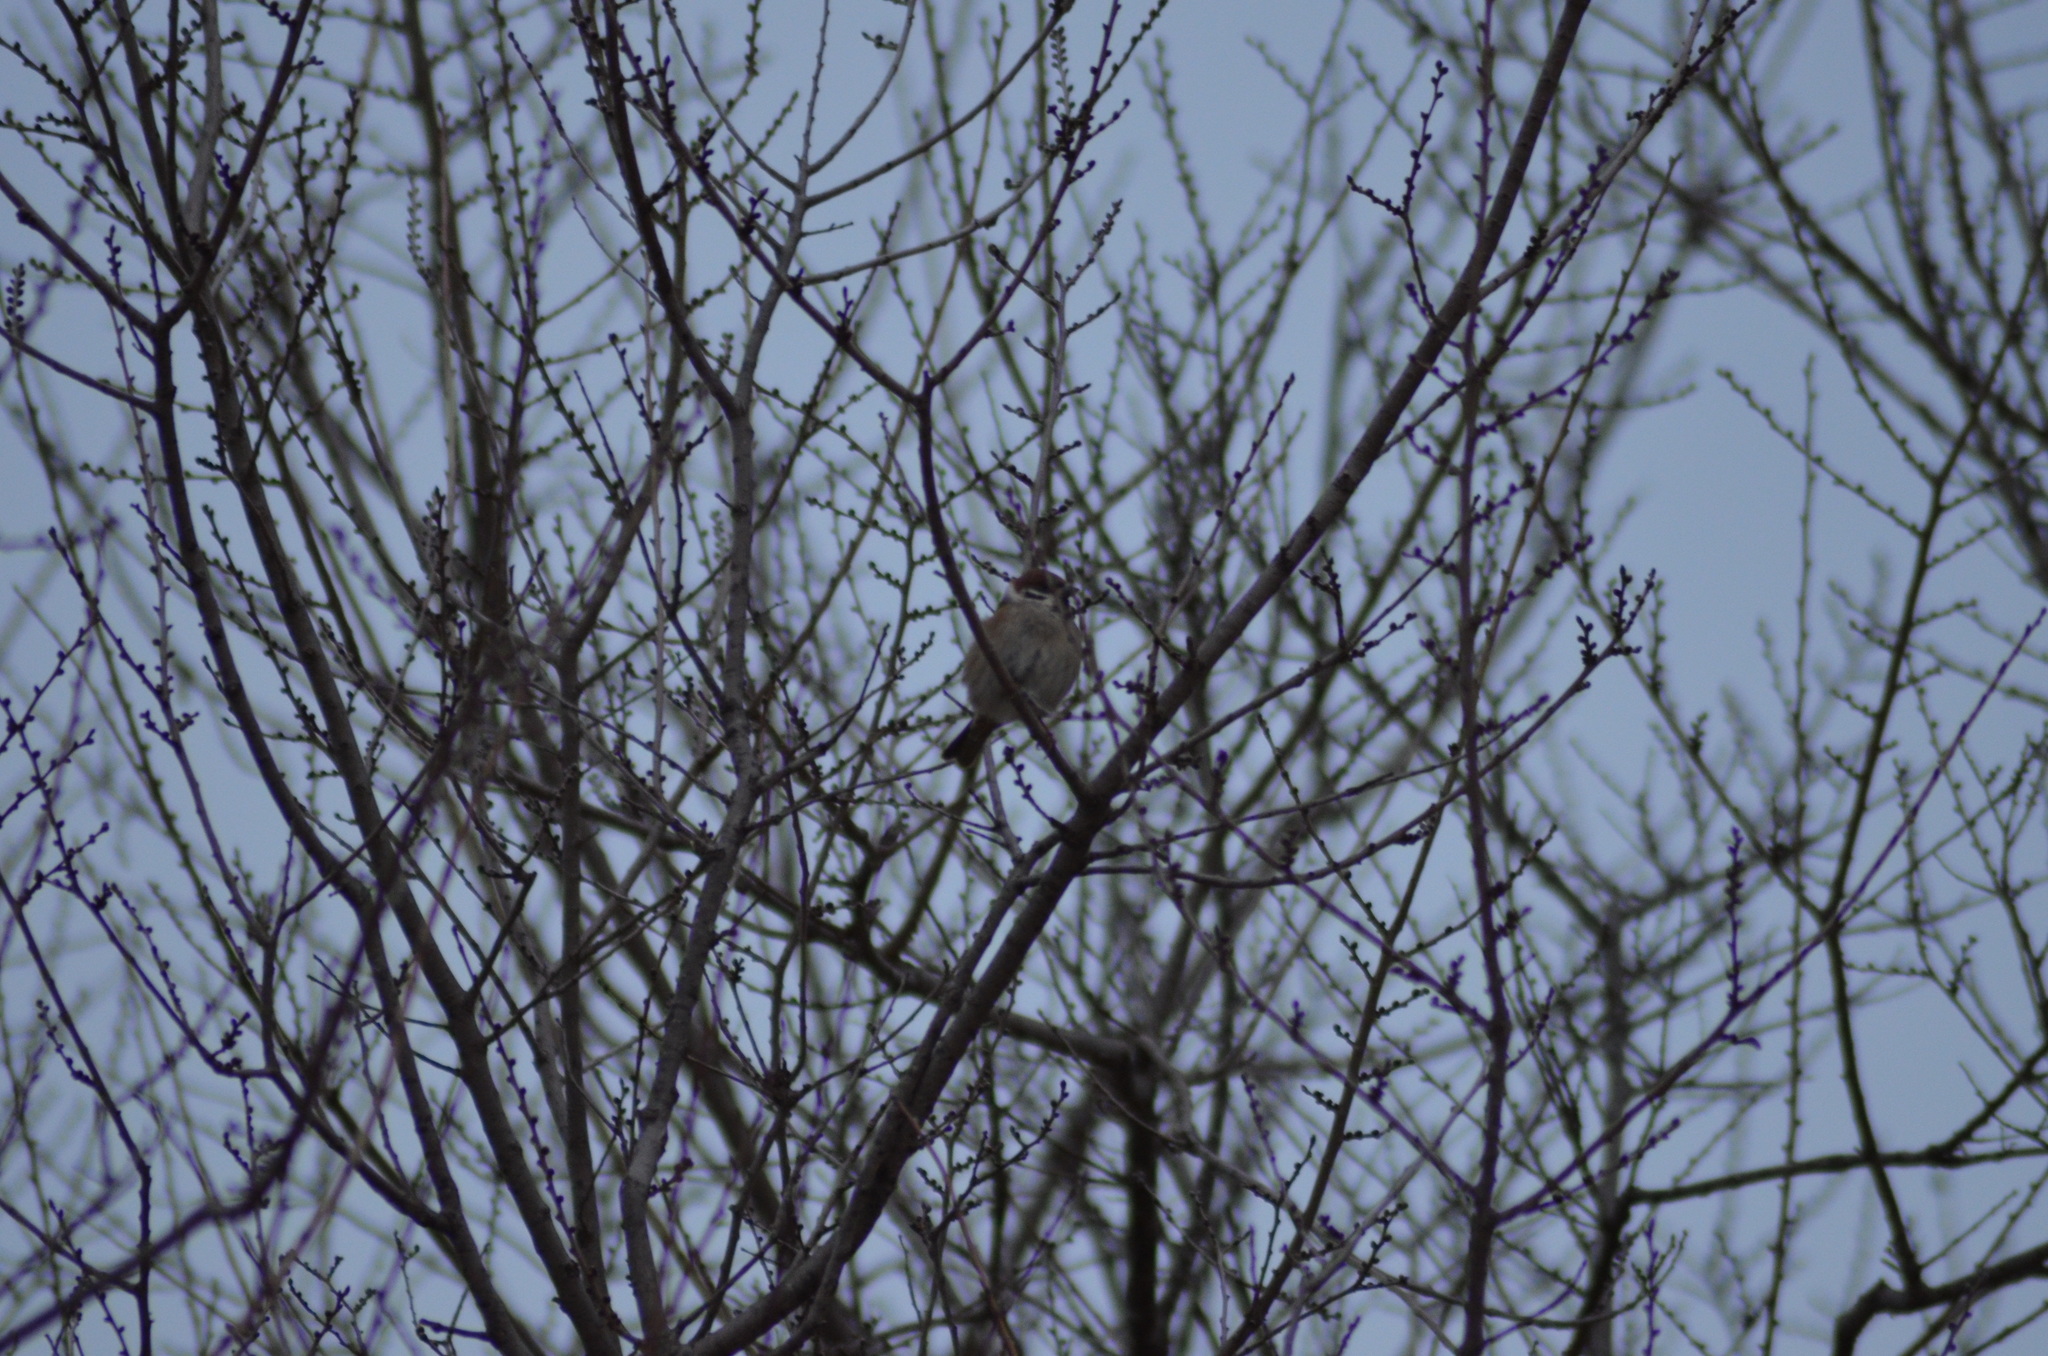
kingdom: Animalia
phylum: Chordata
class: Aves
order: Passeriformes
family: Passeridae
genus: Passer
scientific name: Passer montanus
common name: Eurasian tree sparrow
